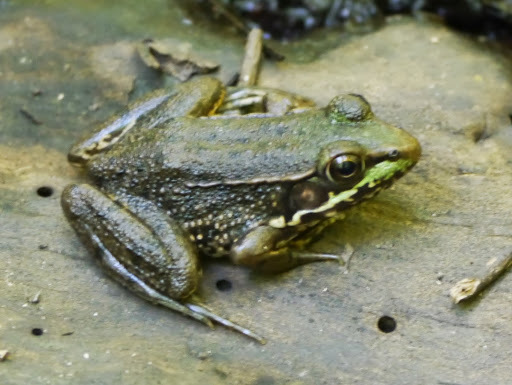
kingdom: Animalia
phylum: Chordata
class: Amphibia
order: Anura
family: Ranidae
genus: Lithobates
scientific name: Lithobates clamitans
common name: Green frog
